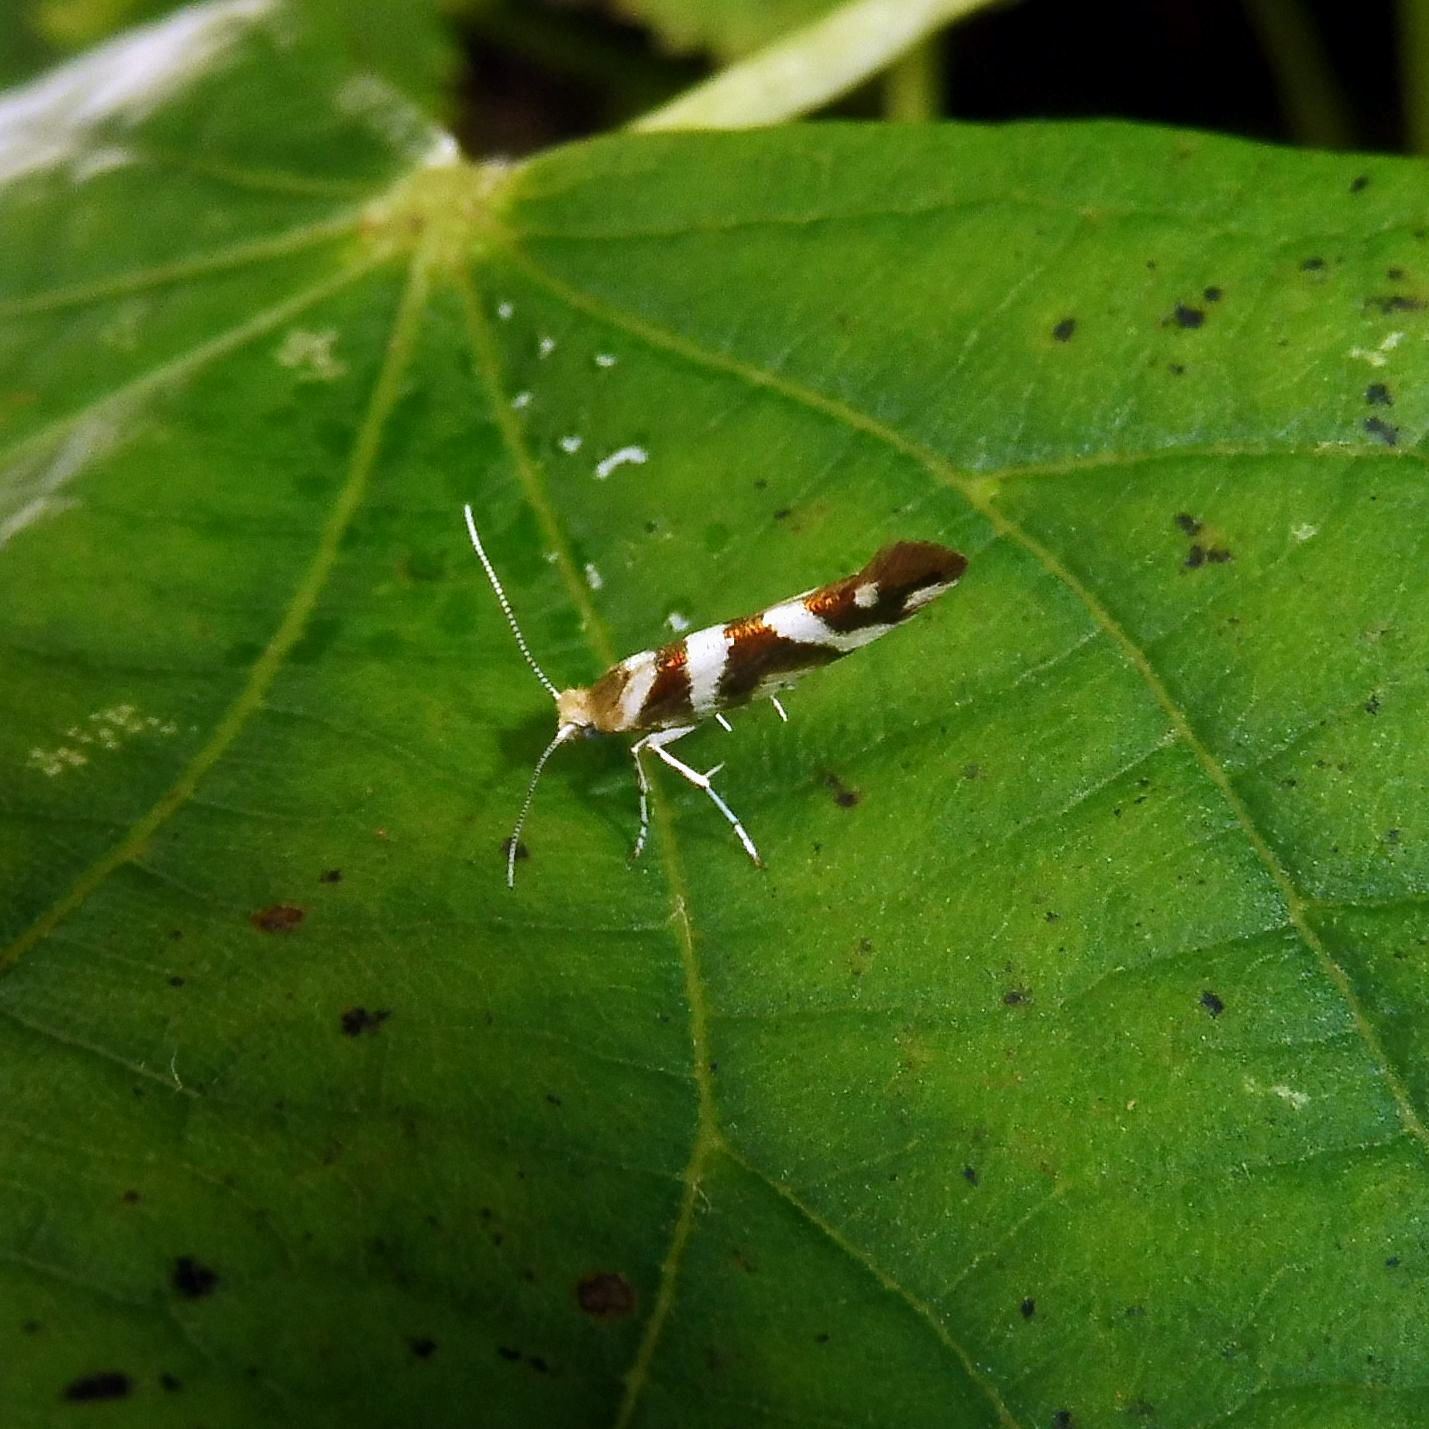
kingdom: Animalia
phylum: Arthropoda
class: Insecta
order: Lepidoptera
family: Argyresthiidae
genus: Argyresthia
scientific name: Argyresthia goedartella
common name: Golden argent
